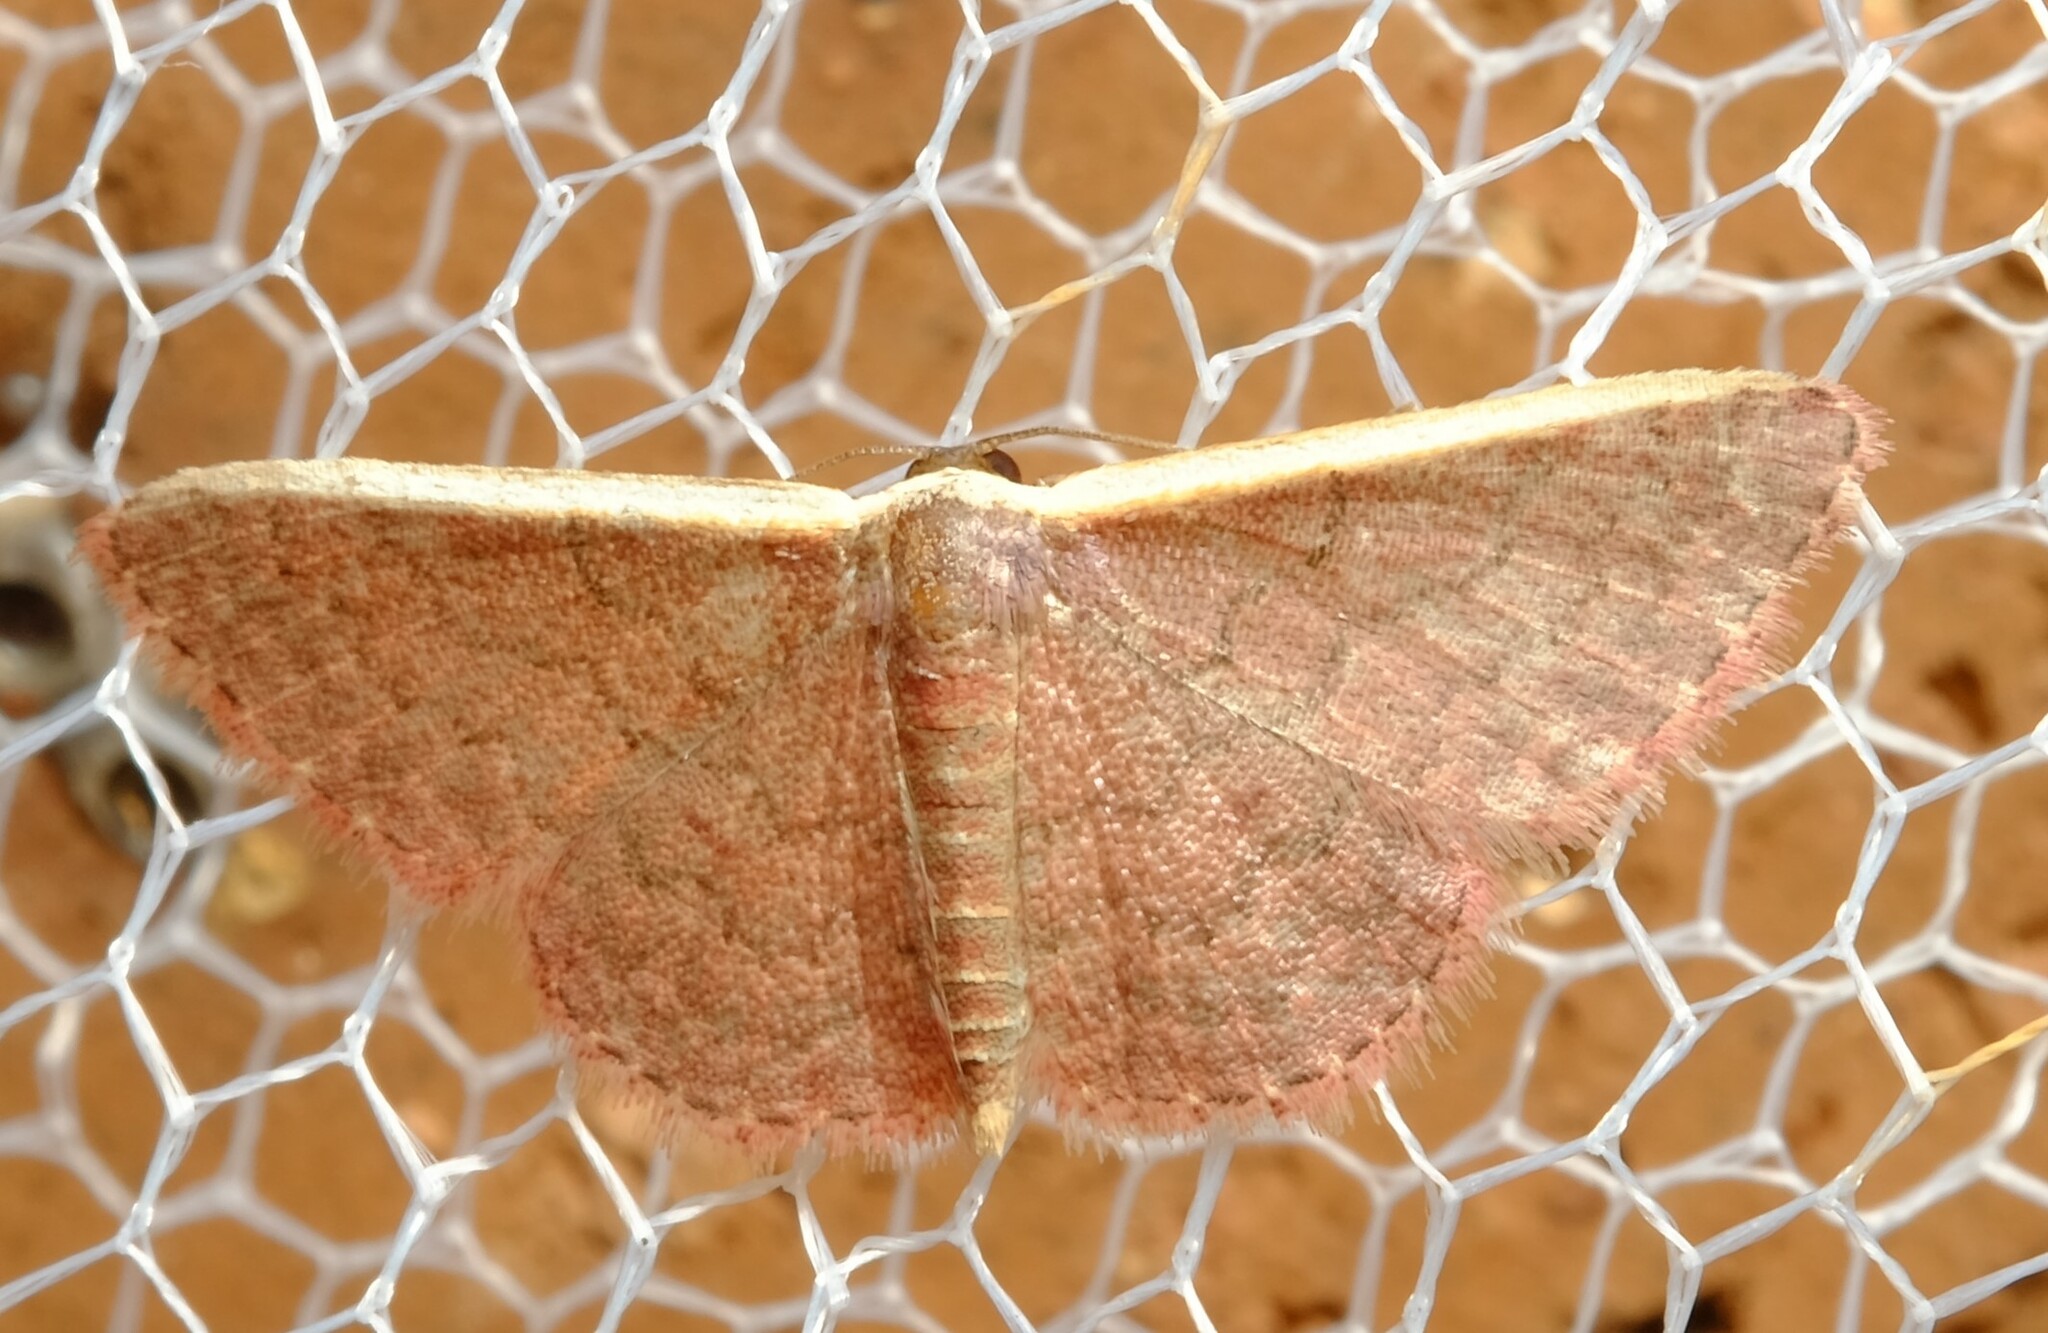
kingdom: Animalia
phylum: Arthropoda
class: Insecta
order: Lepidoptera
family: Geometridae
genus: Idaea
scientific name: Idaea costaria
